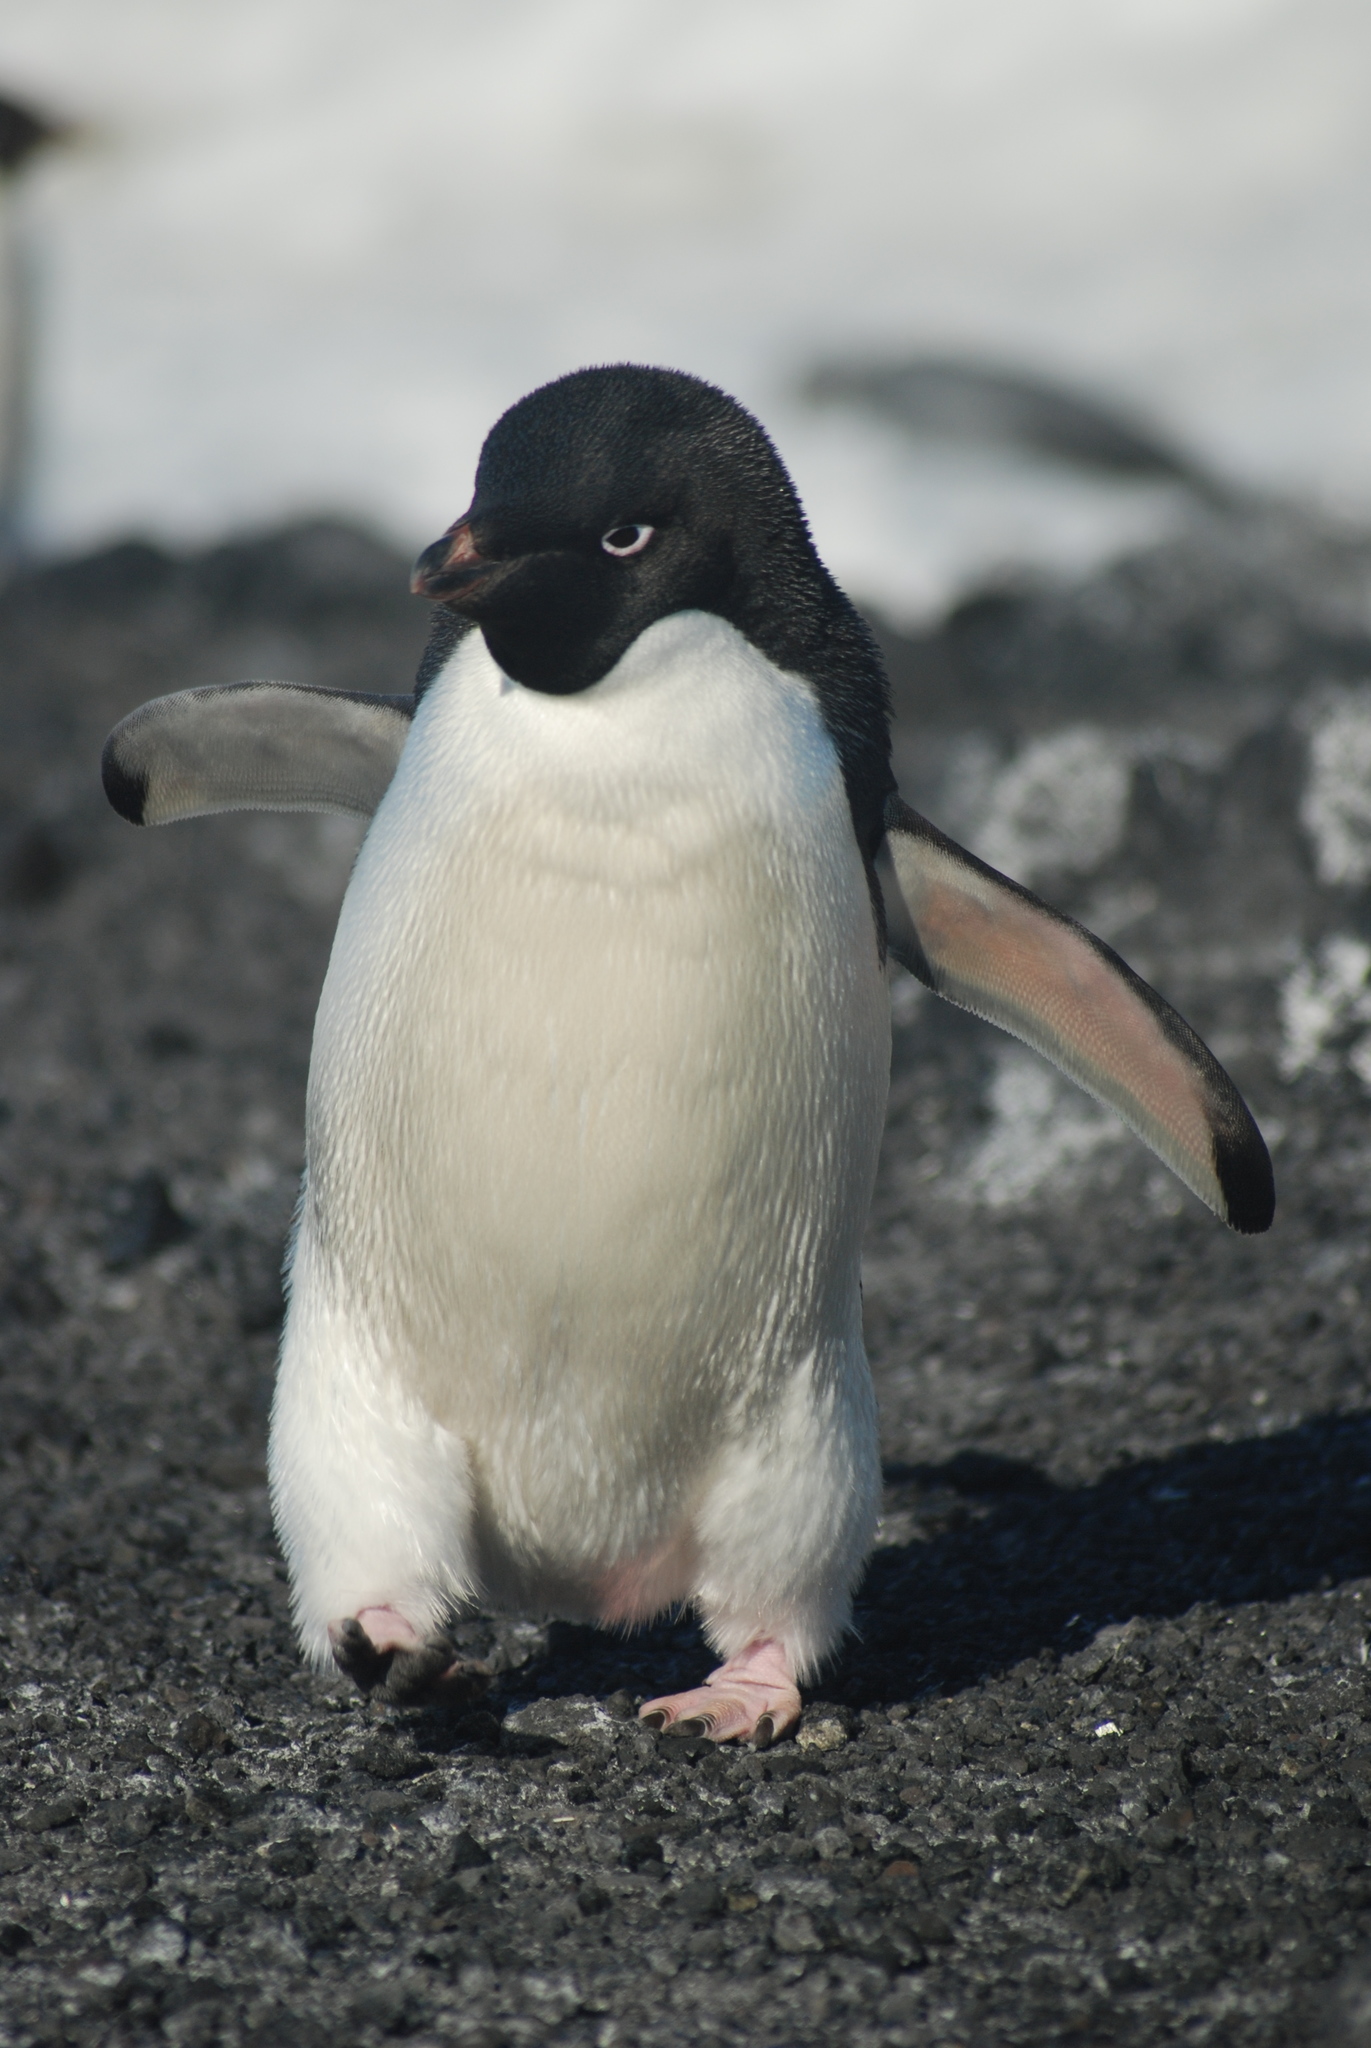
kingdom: Animalia
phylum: Chordata
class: Aves
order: Sphenisciformes
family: Spheniscidae
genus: Pygoscelis
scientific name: Pygoscelis adeliae
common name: Adelie penguin
